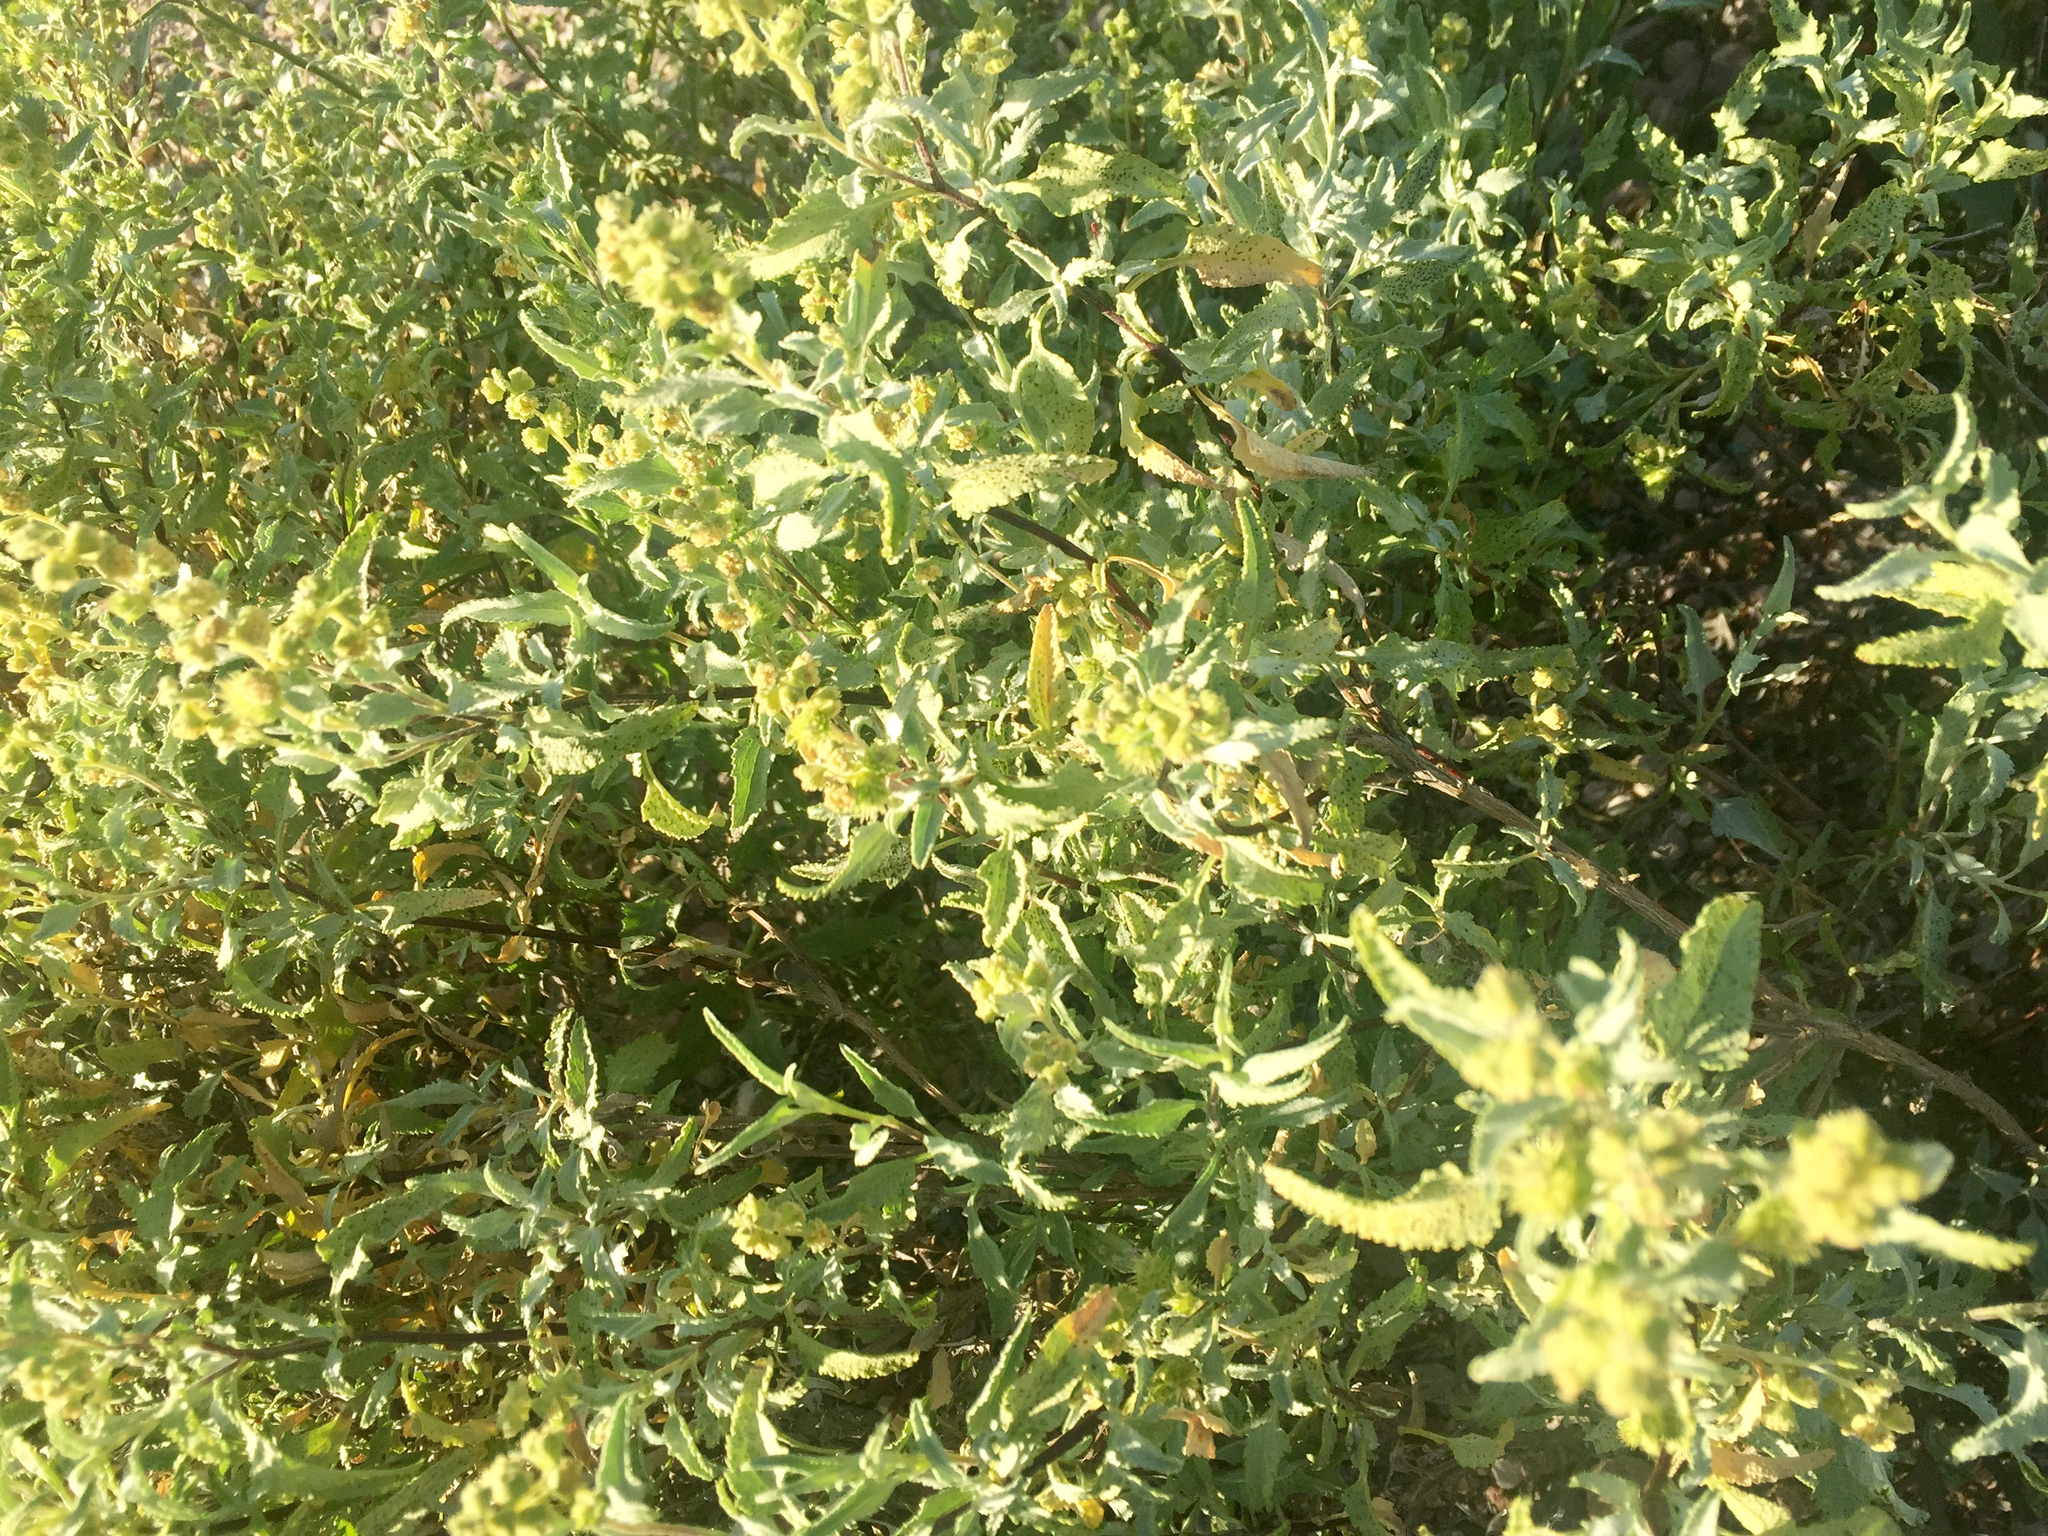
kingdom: Plantae
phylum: Tracheophyta
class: Magnoliopsida
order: Asterales
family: Asteraceae
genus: Ambrosia
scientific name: Ambrosia deltoidea
